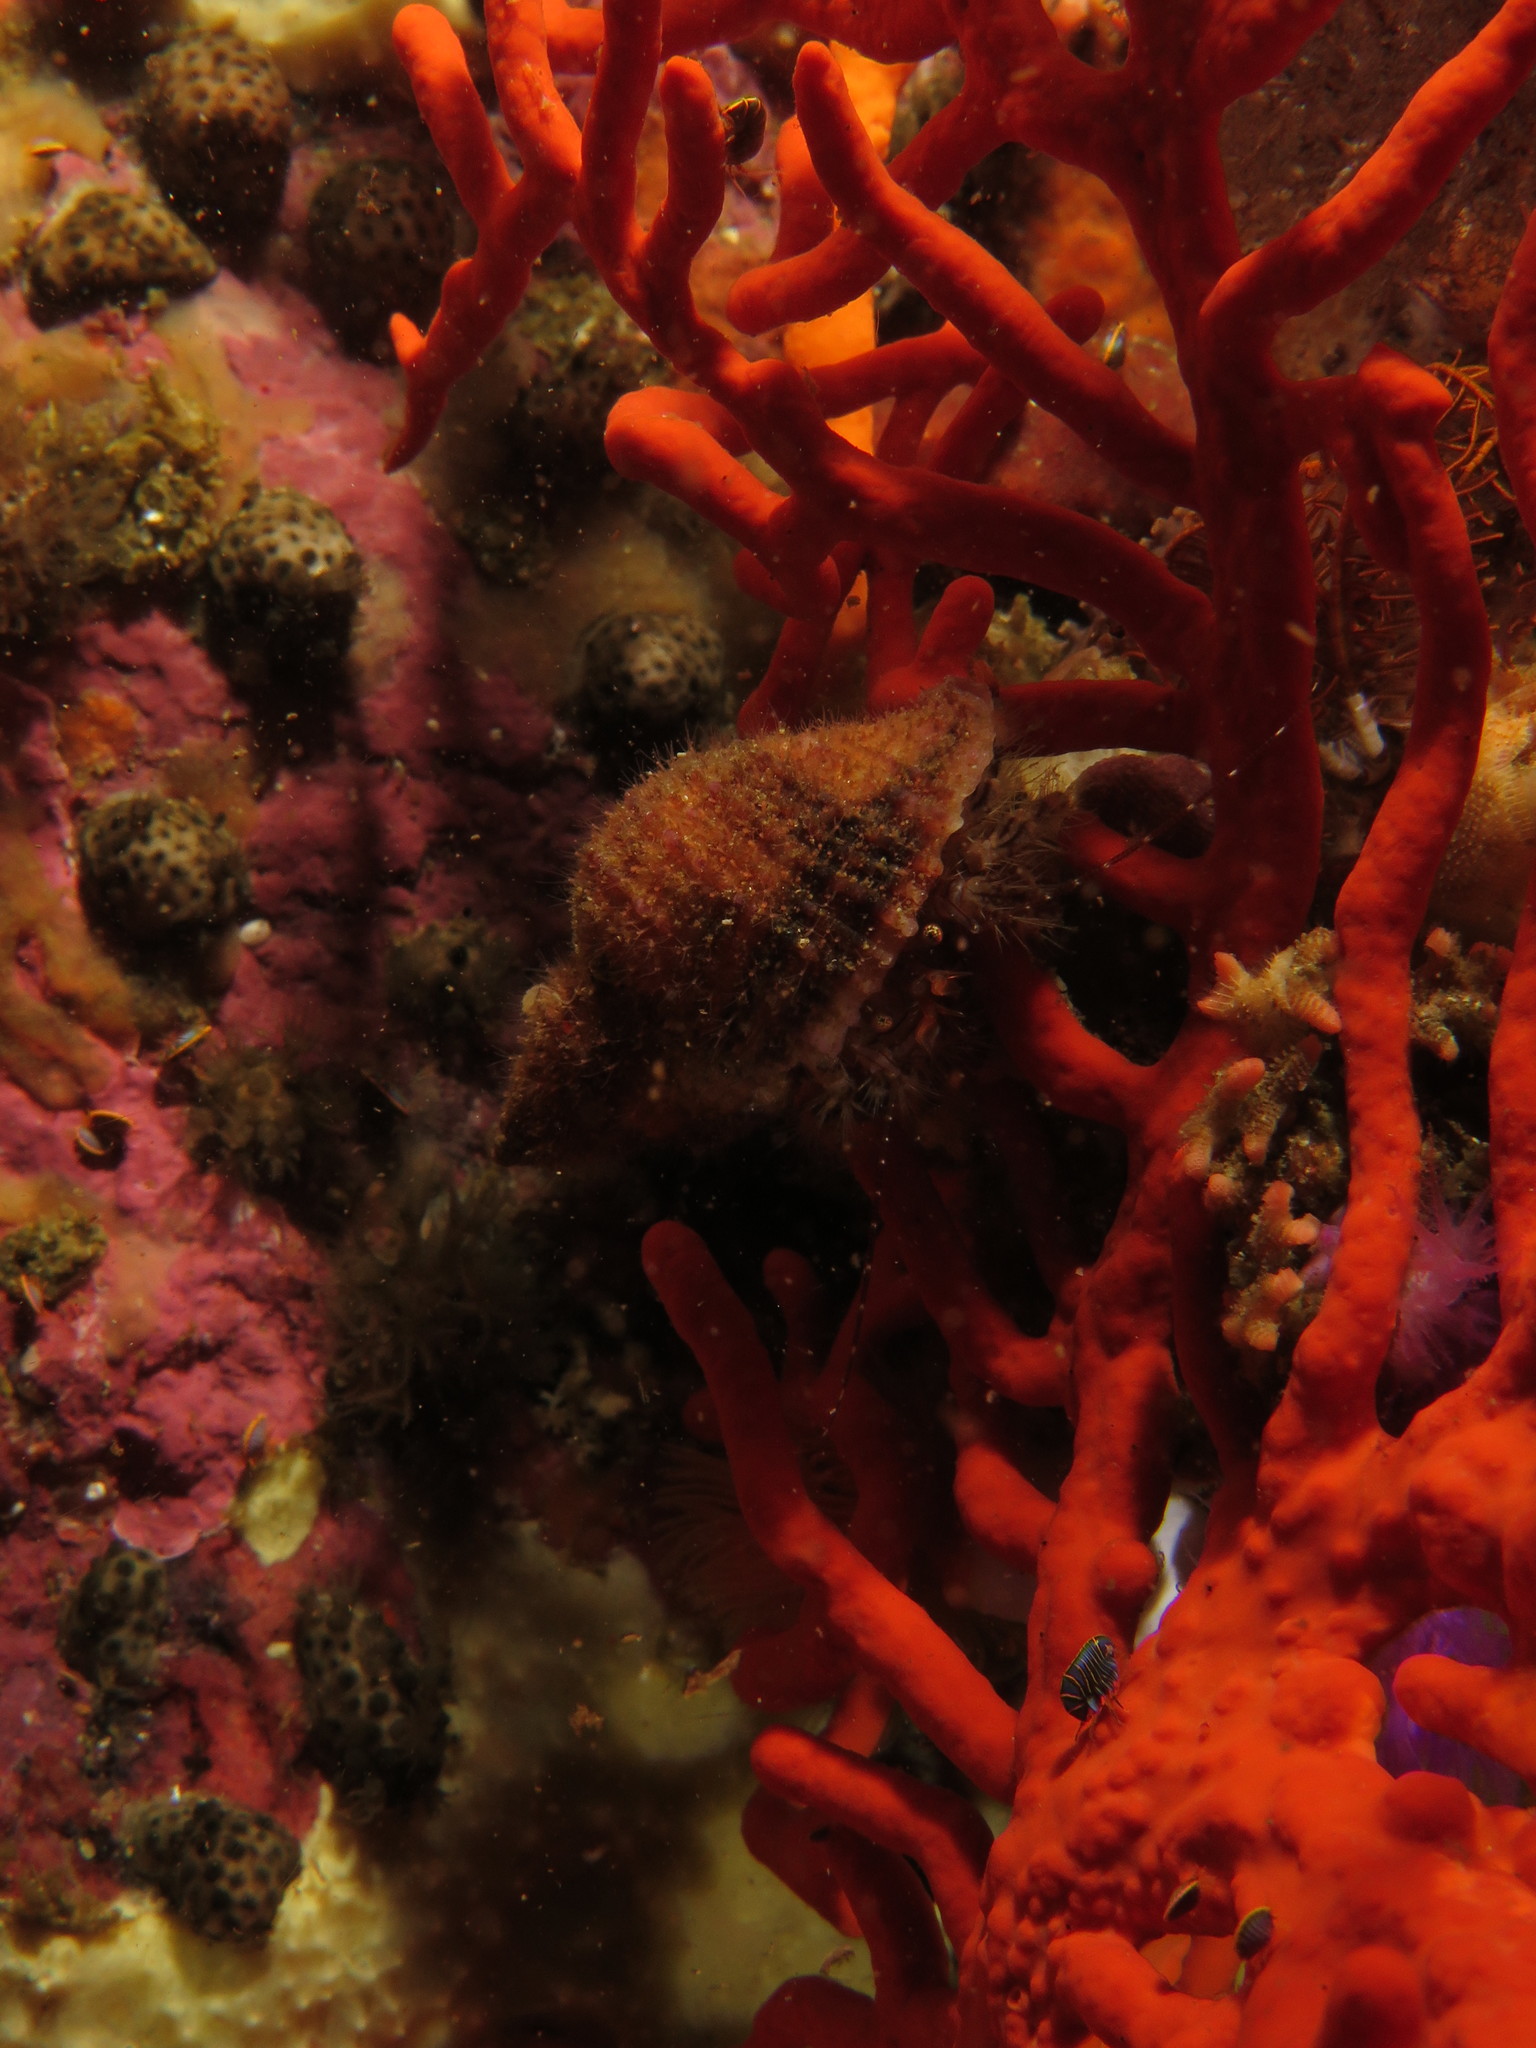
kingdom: Animalia
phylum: Arthropoda
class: Malacostraca
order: Decapoda
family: Paguridae
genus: Pagurus
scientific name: Pagurus liochele
